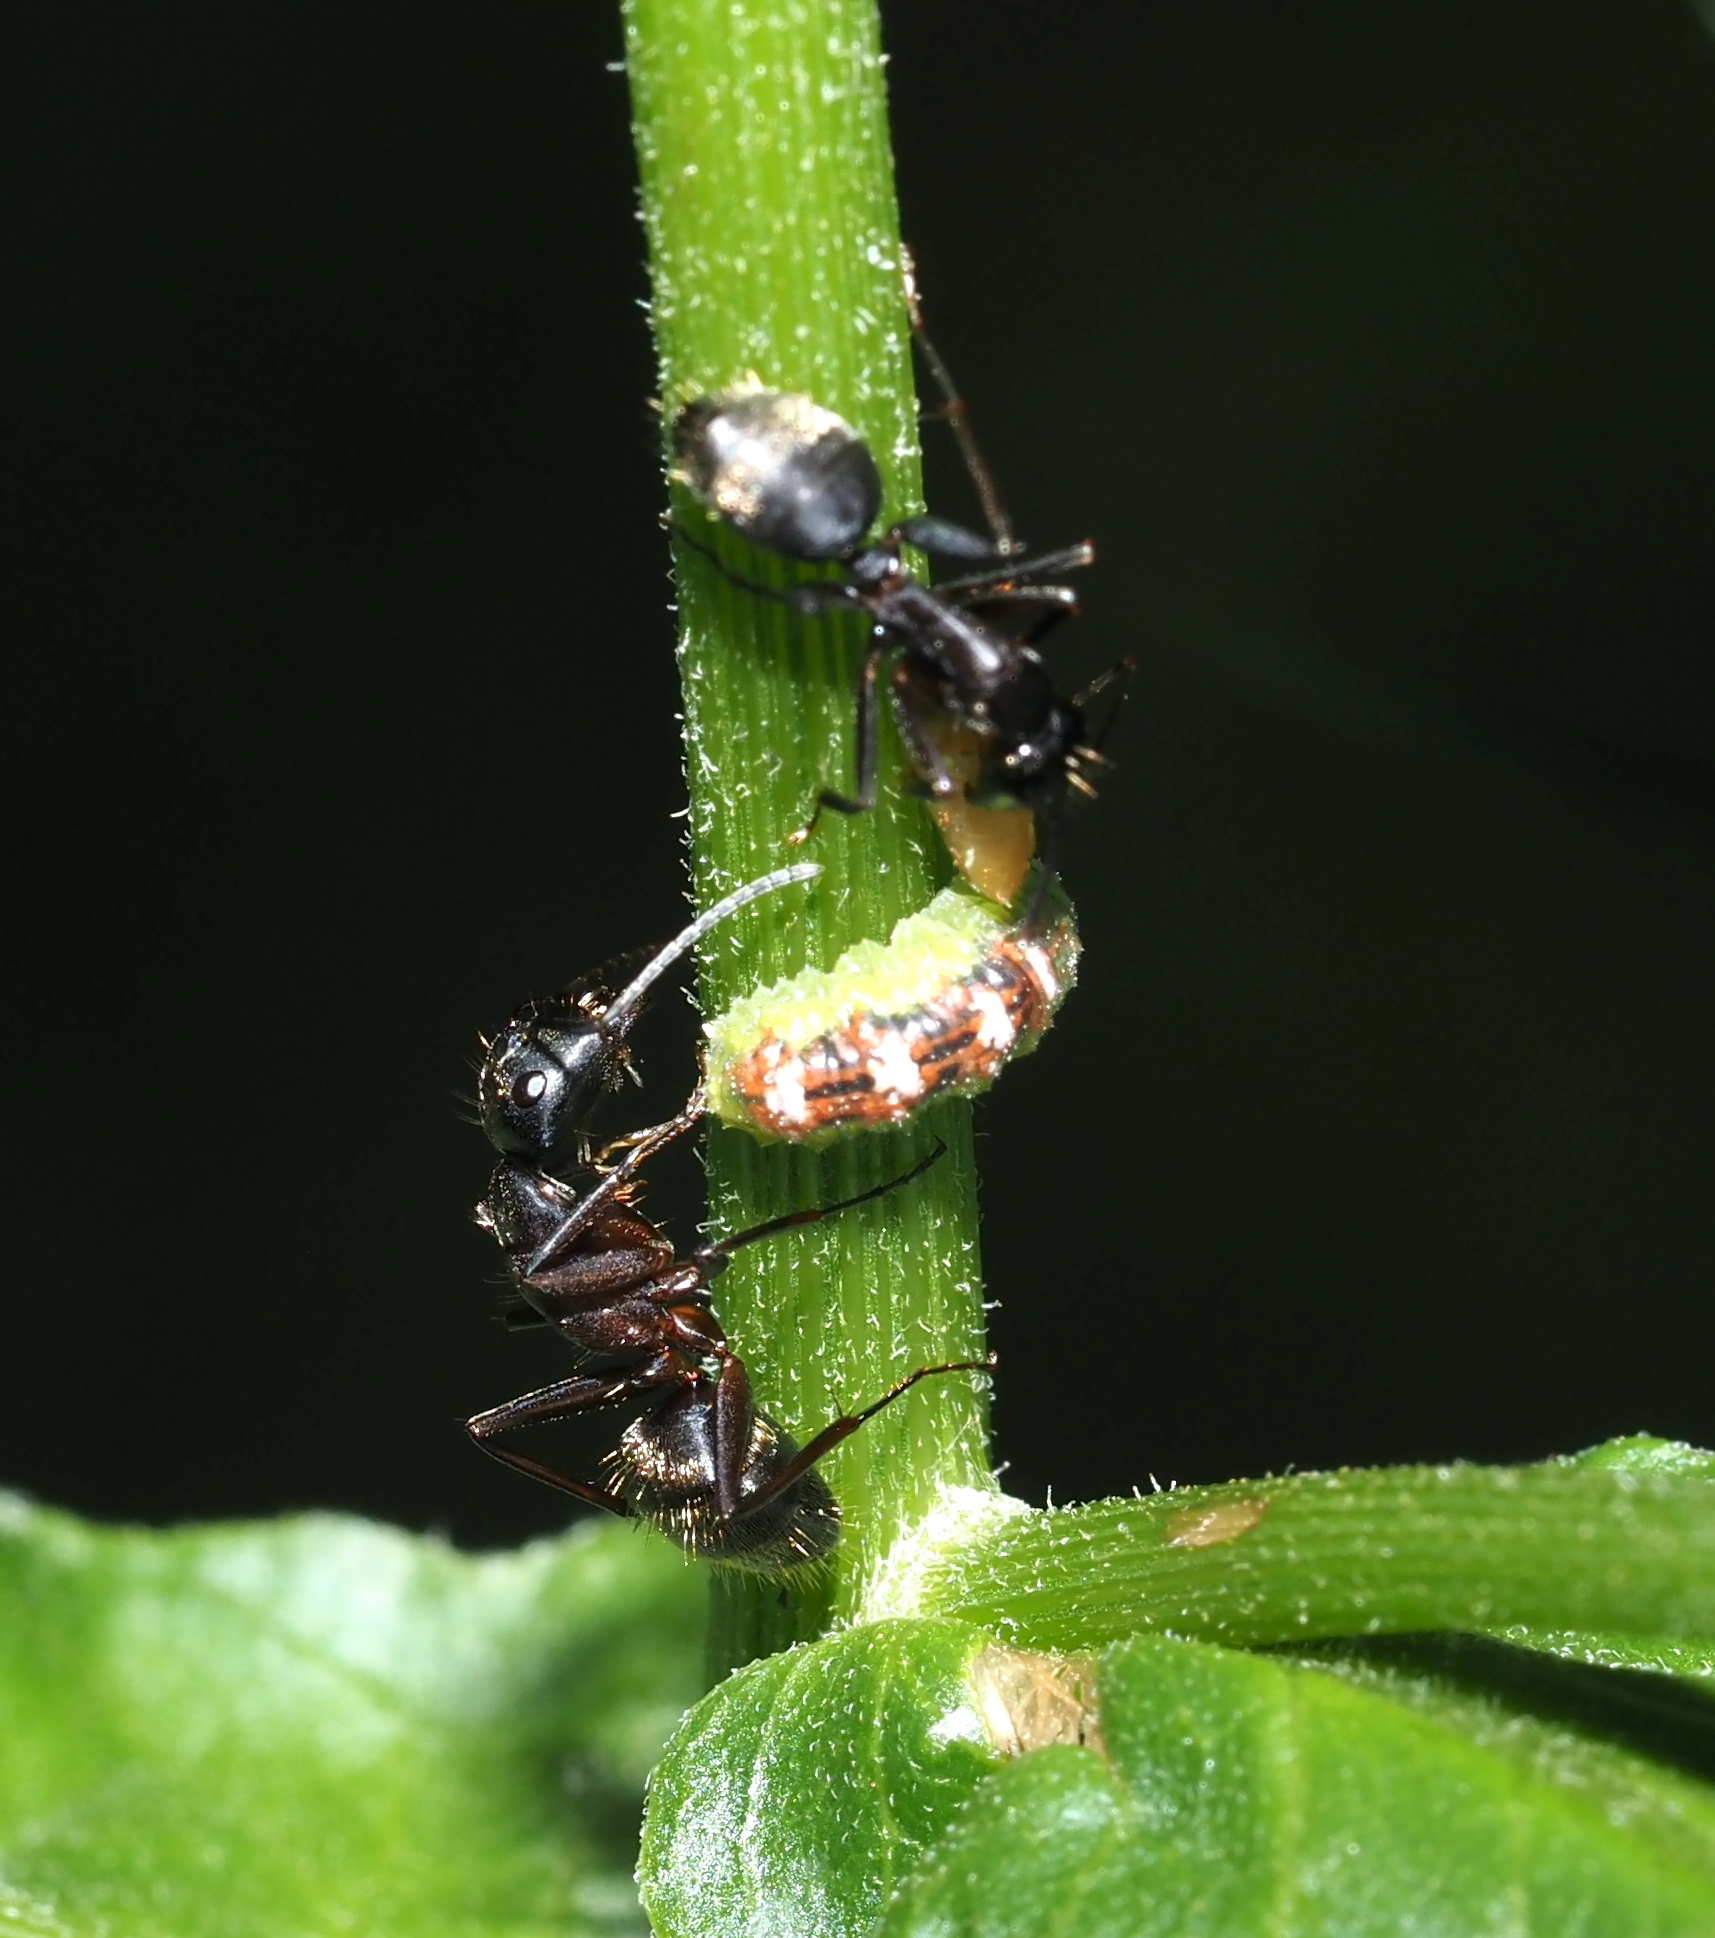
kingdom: Animalia
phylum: Arthropoda
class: Insecta
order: Diptera
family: Syrphidae
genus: Eupeodes
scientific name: Eupeodes pomus
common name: Short-tailed aphideater
